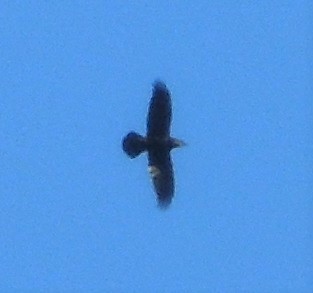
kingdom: Animalia
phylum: Chordata
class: Aves
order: Passeriformes
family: Corvidae
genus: Corvus
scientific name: Corvus corax
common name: Common raven
